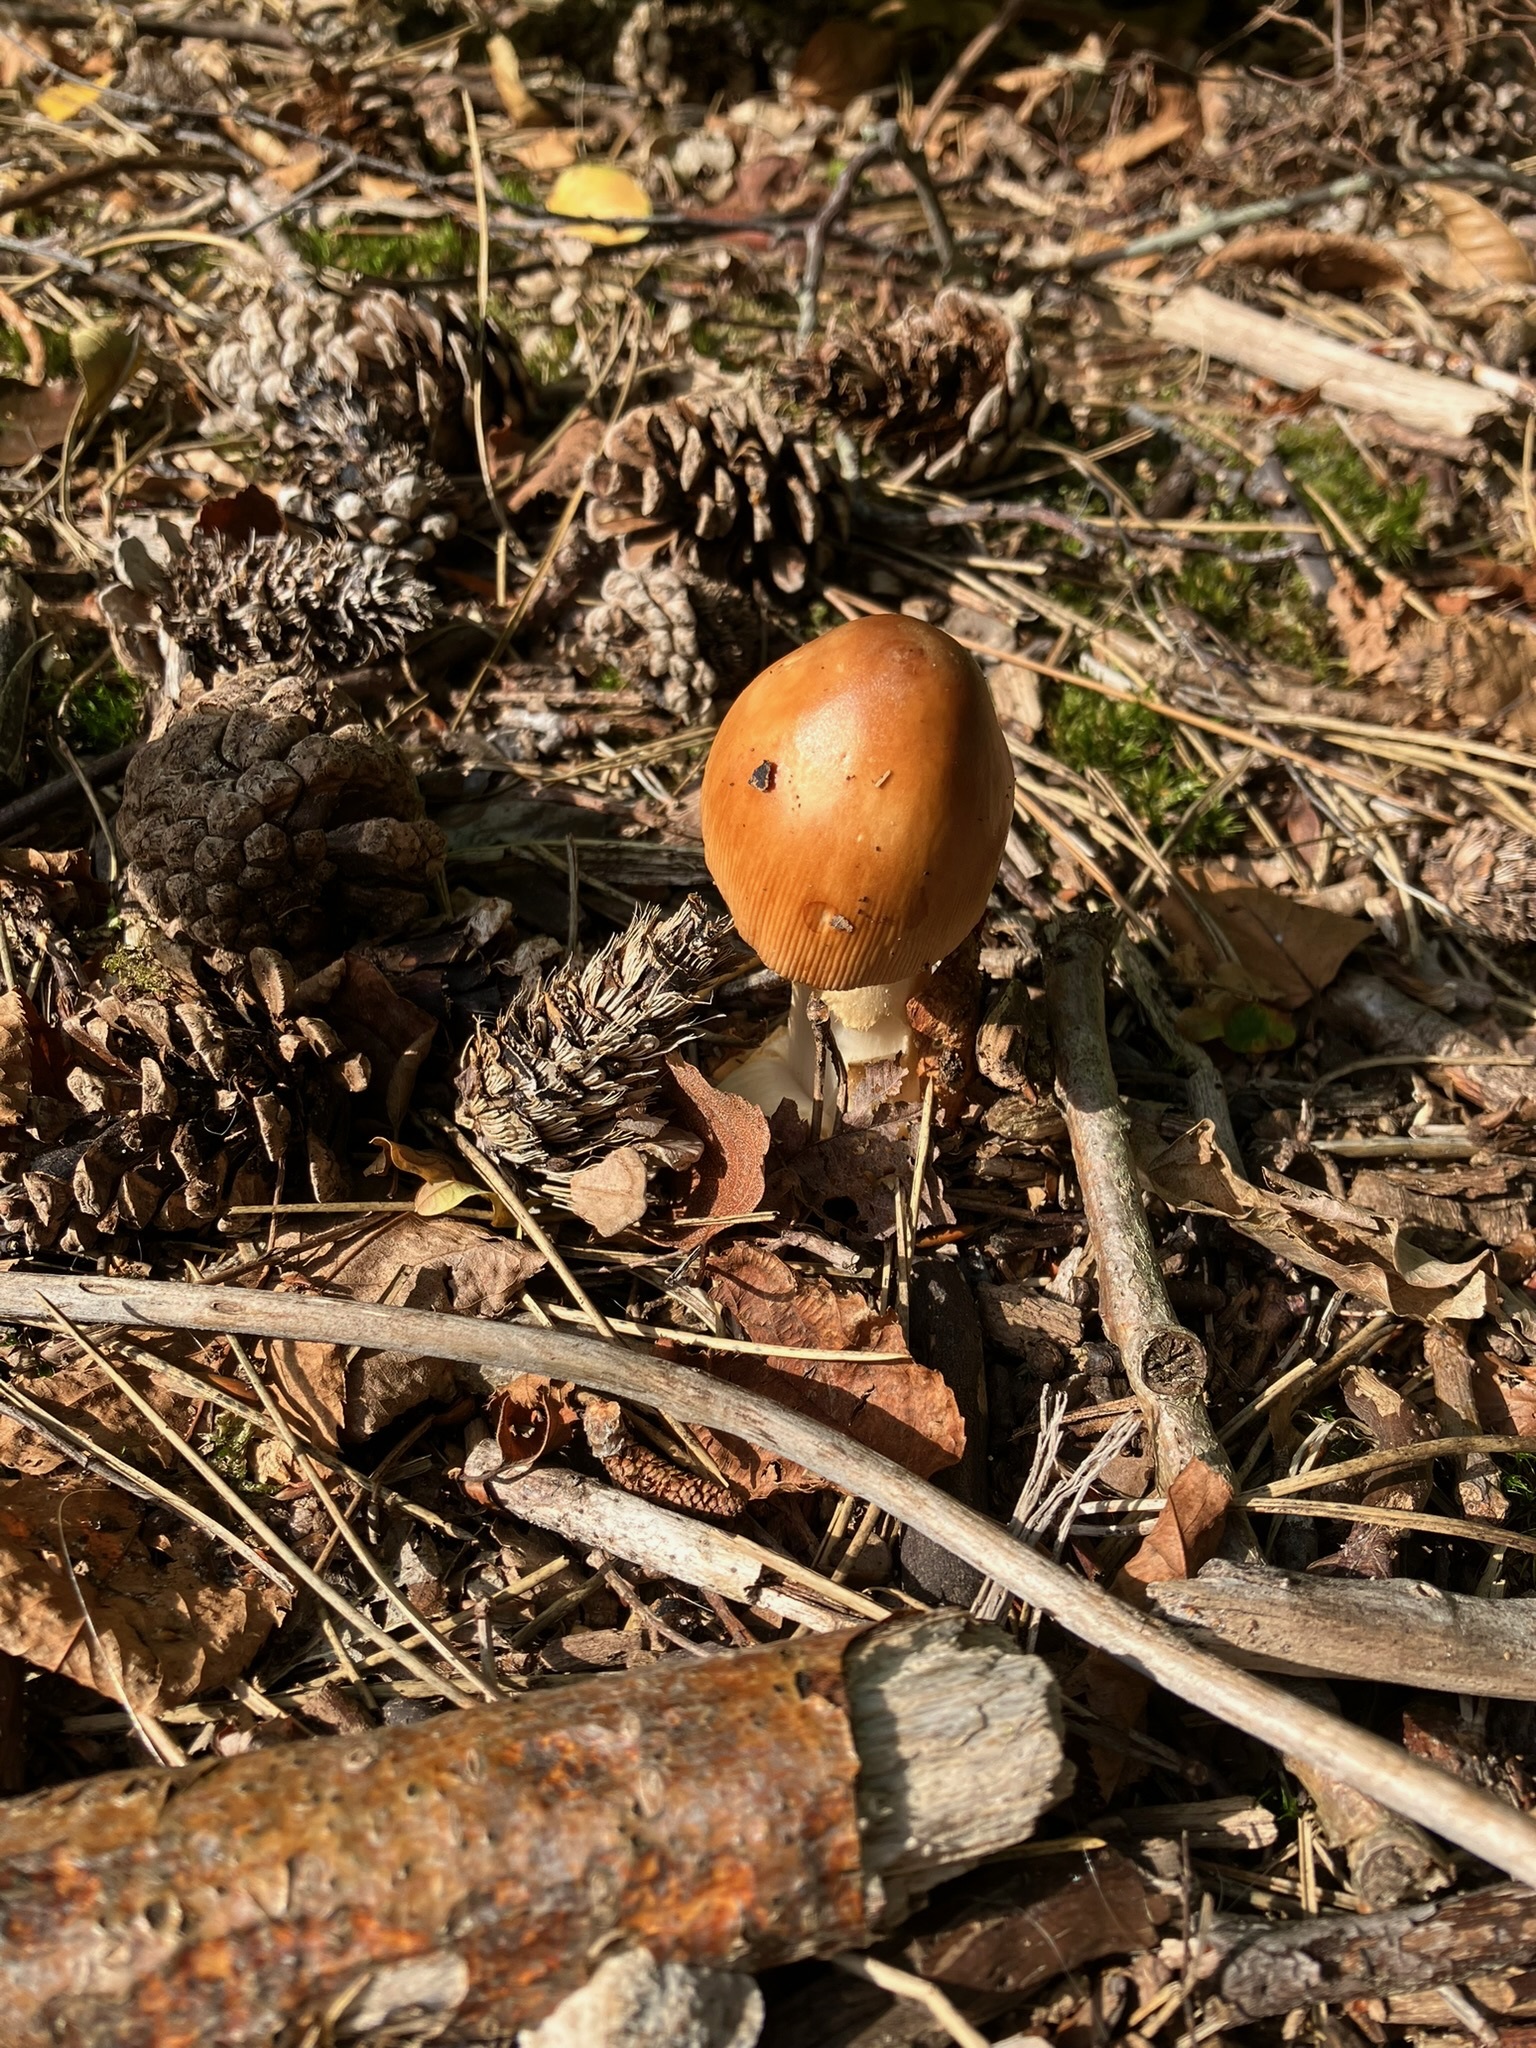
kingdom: Fungi
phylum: Basidiomycota
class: Agaricomycetes
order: Agaricales
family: Amanitaceae
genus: Amanita
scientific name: Amanita fulva
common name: Tawny grisette
